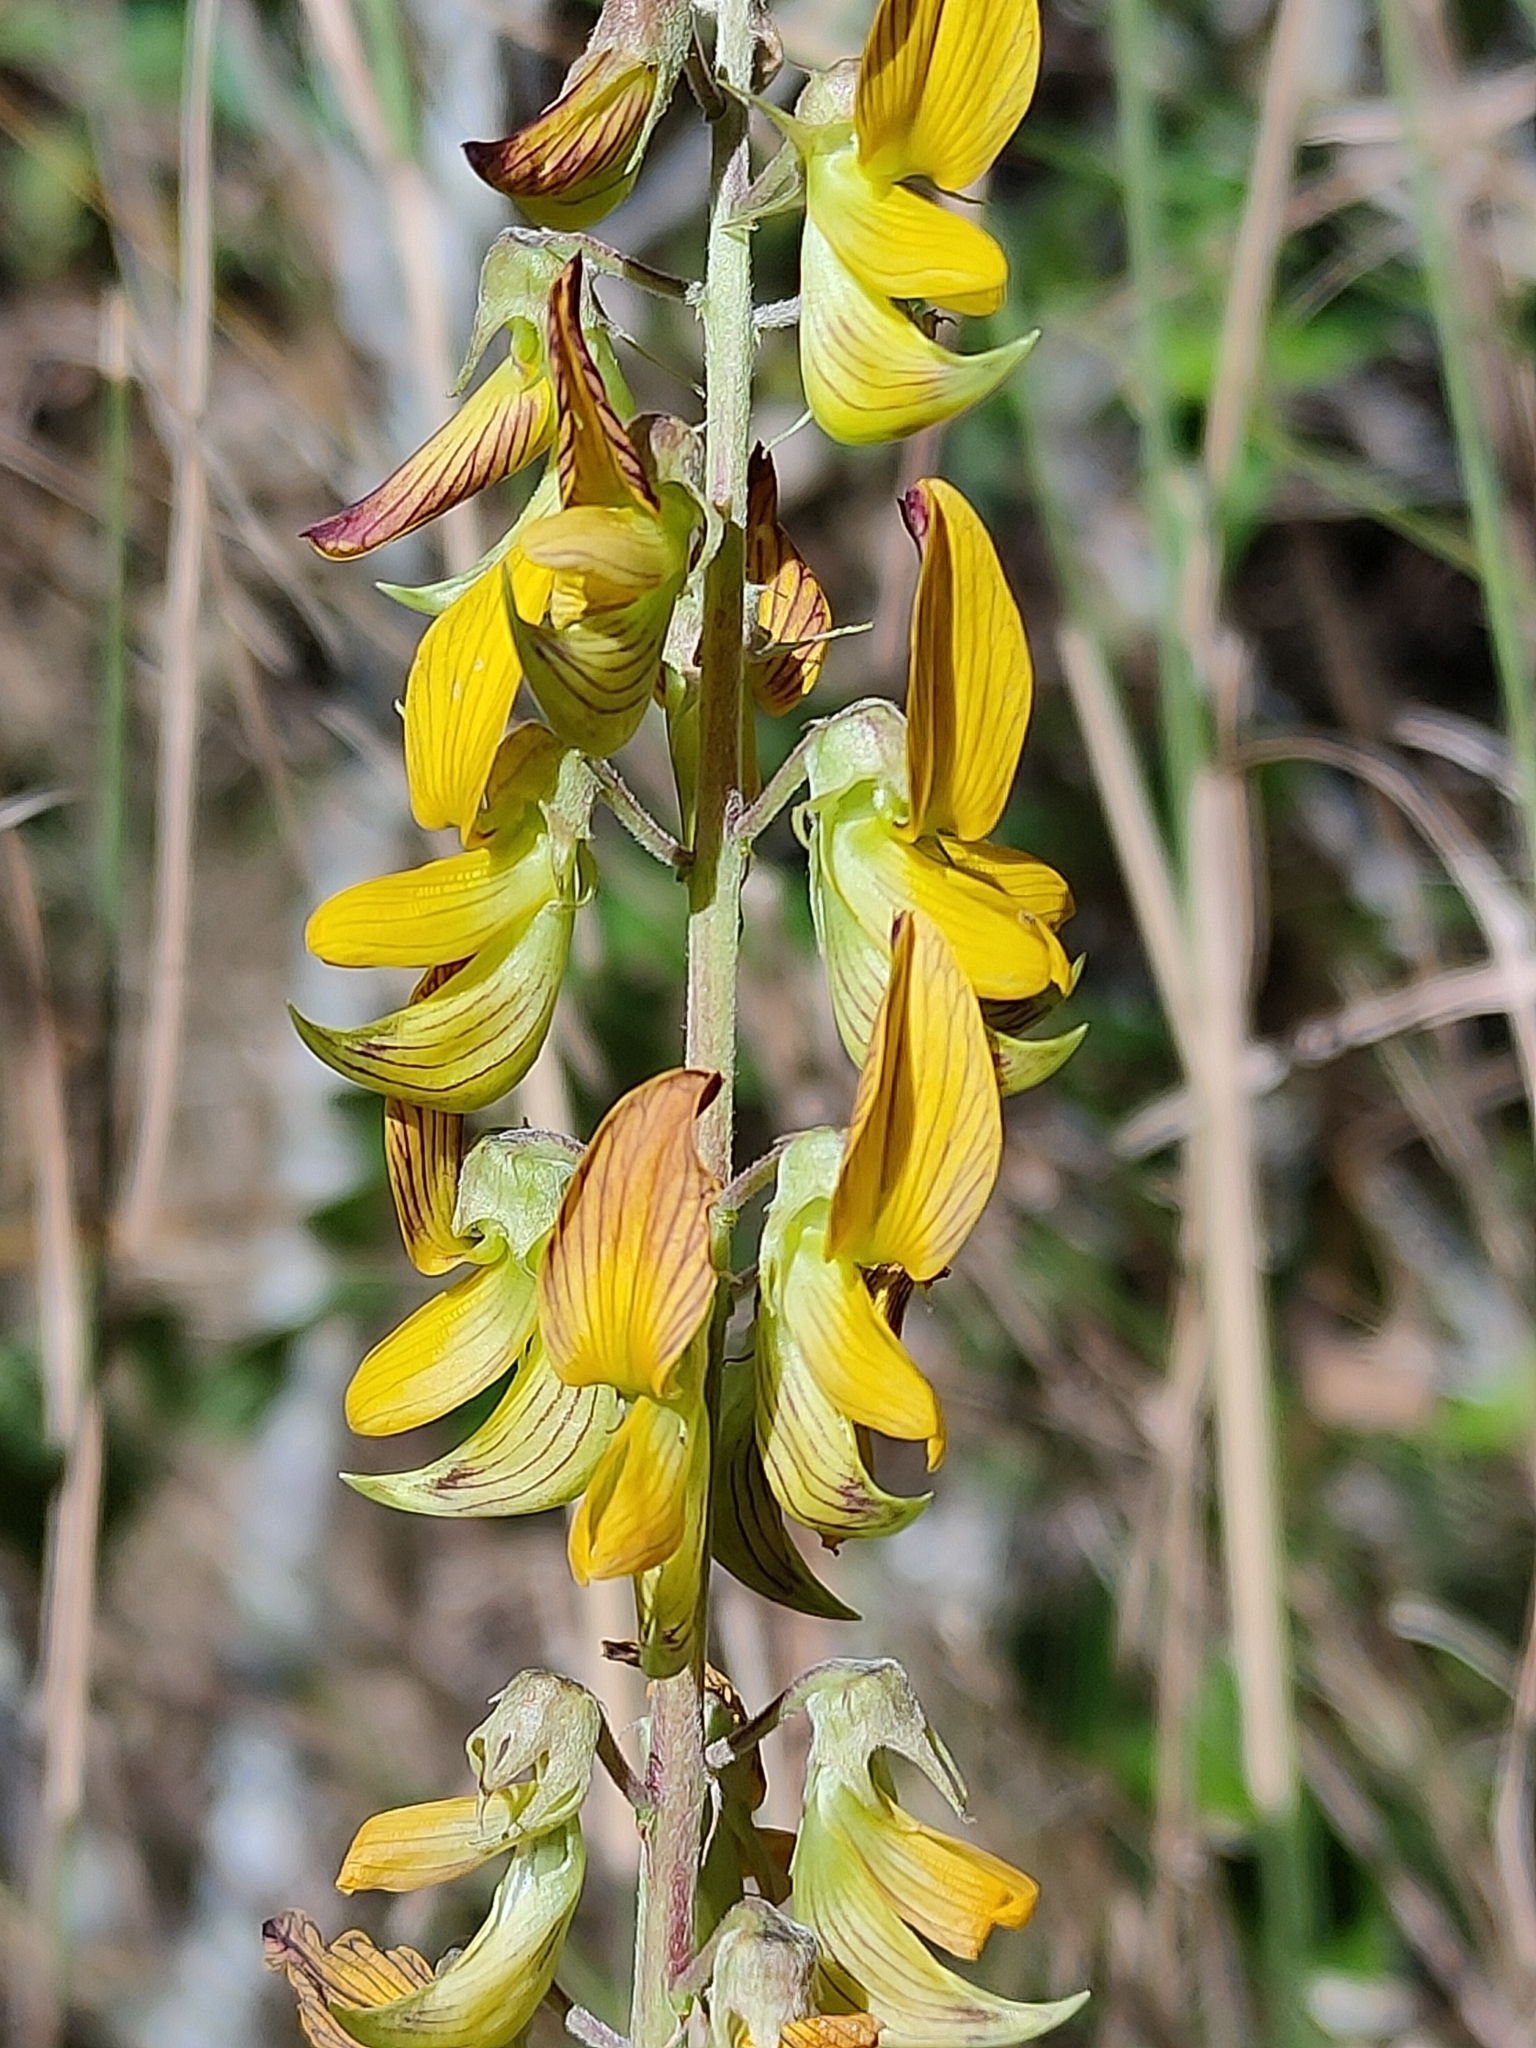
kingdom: Plantae
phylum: Tracheophyta
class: Magnoliopsida
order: Fabales
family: Fabaceae
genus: Crotalaria
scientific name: Crotalaria pallida
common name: Smooth rattlebox
